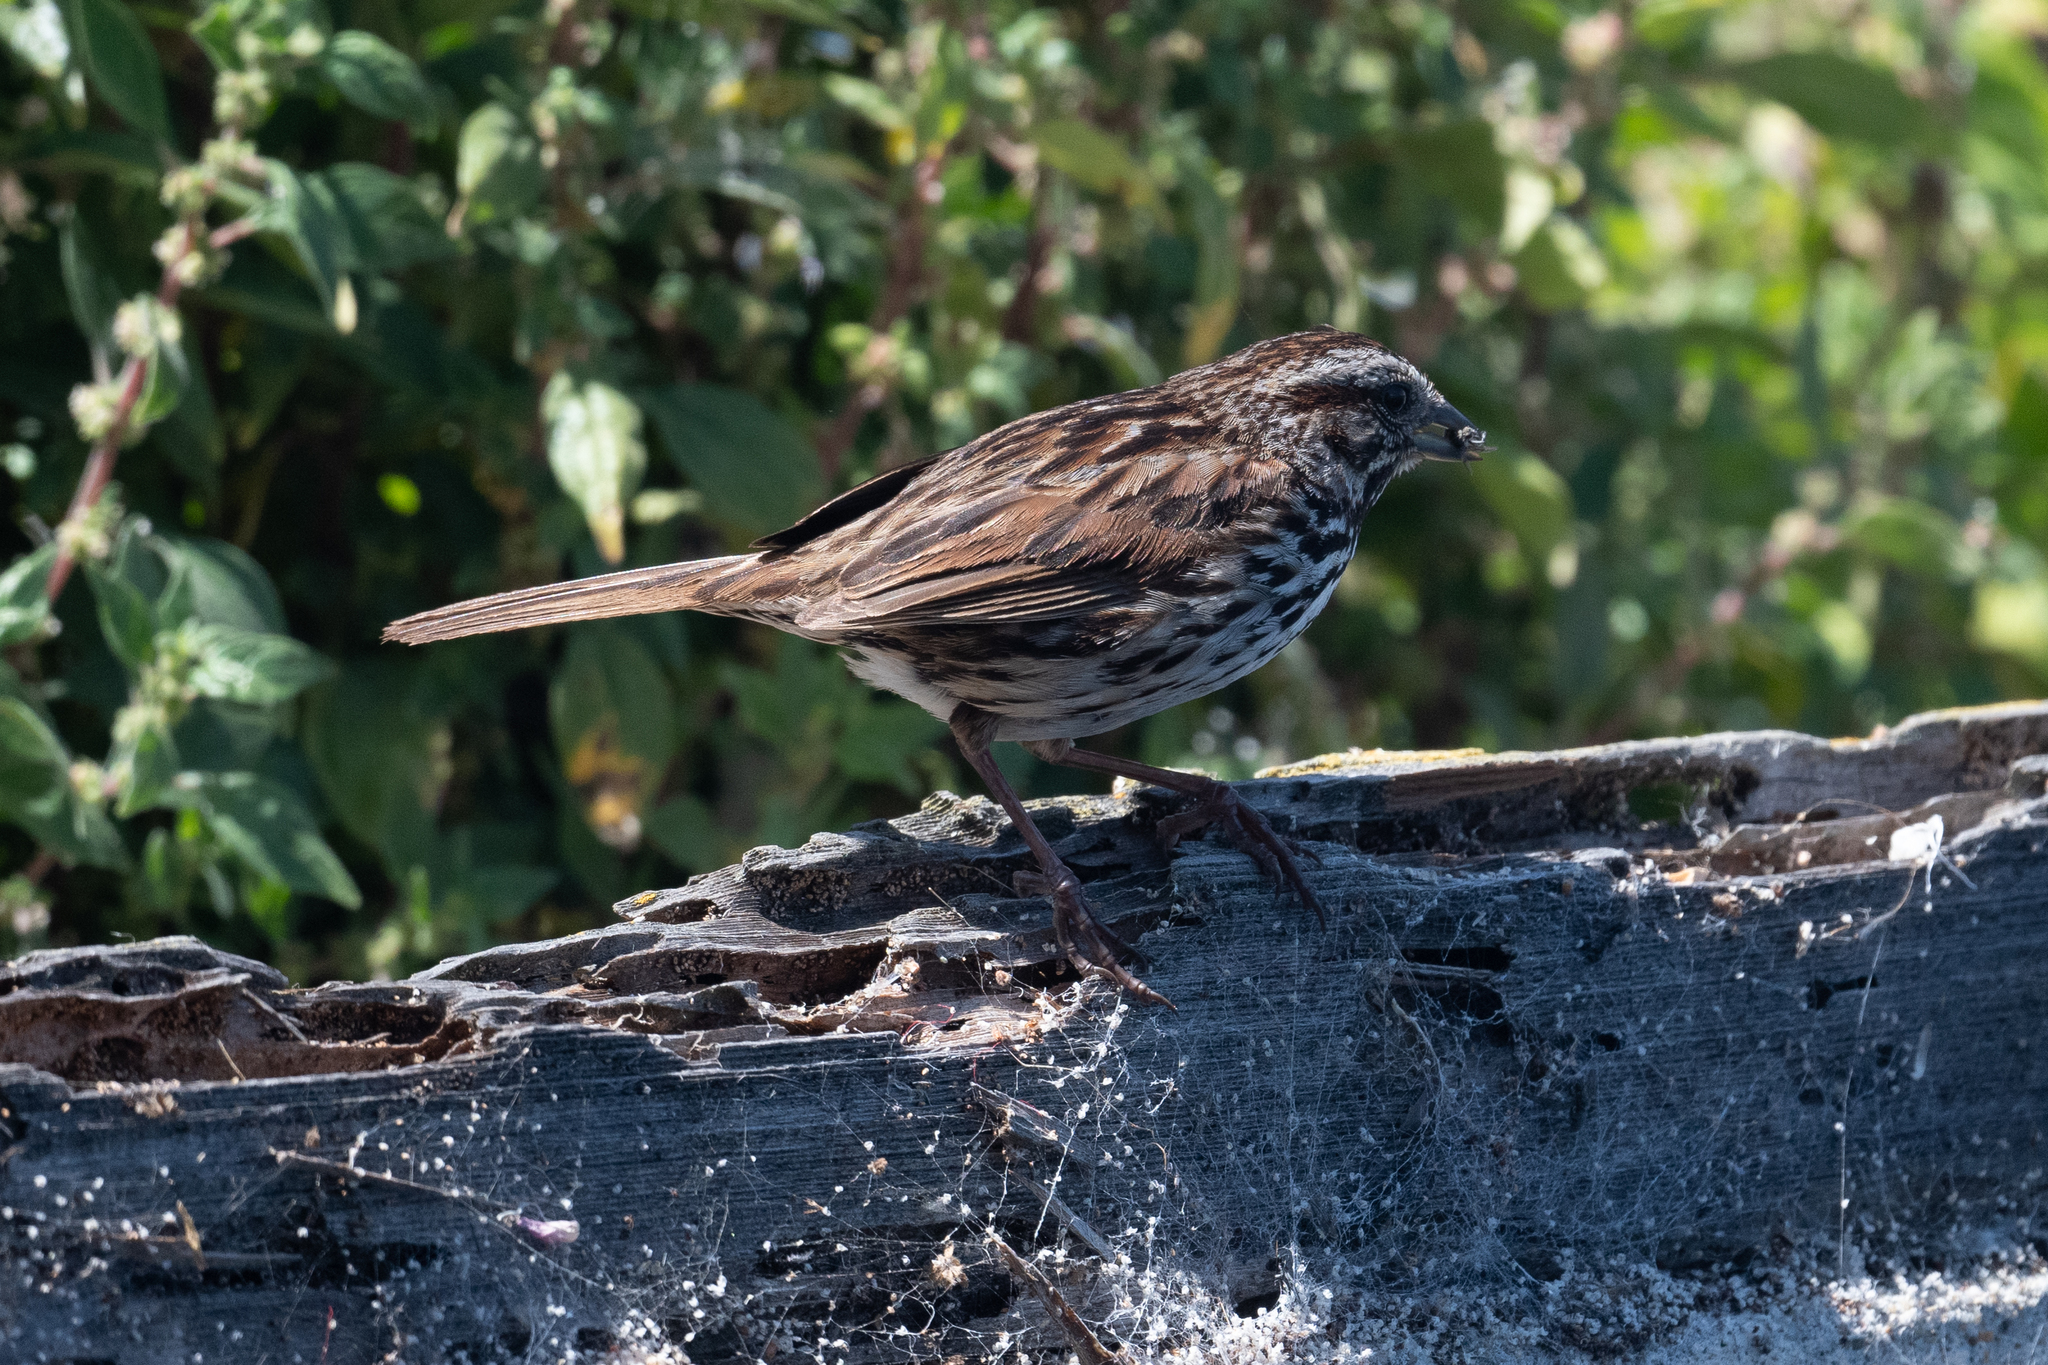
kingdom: Animalia
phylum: Chordata
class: Aves
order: Passeriformes
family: Passerellidae
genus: Melospiza
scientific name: Melospiza melodia
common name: Song sparrow
